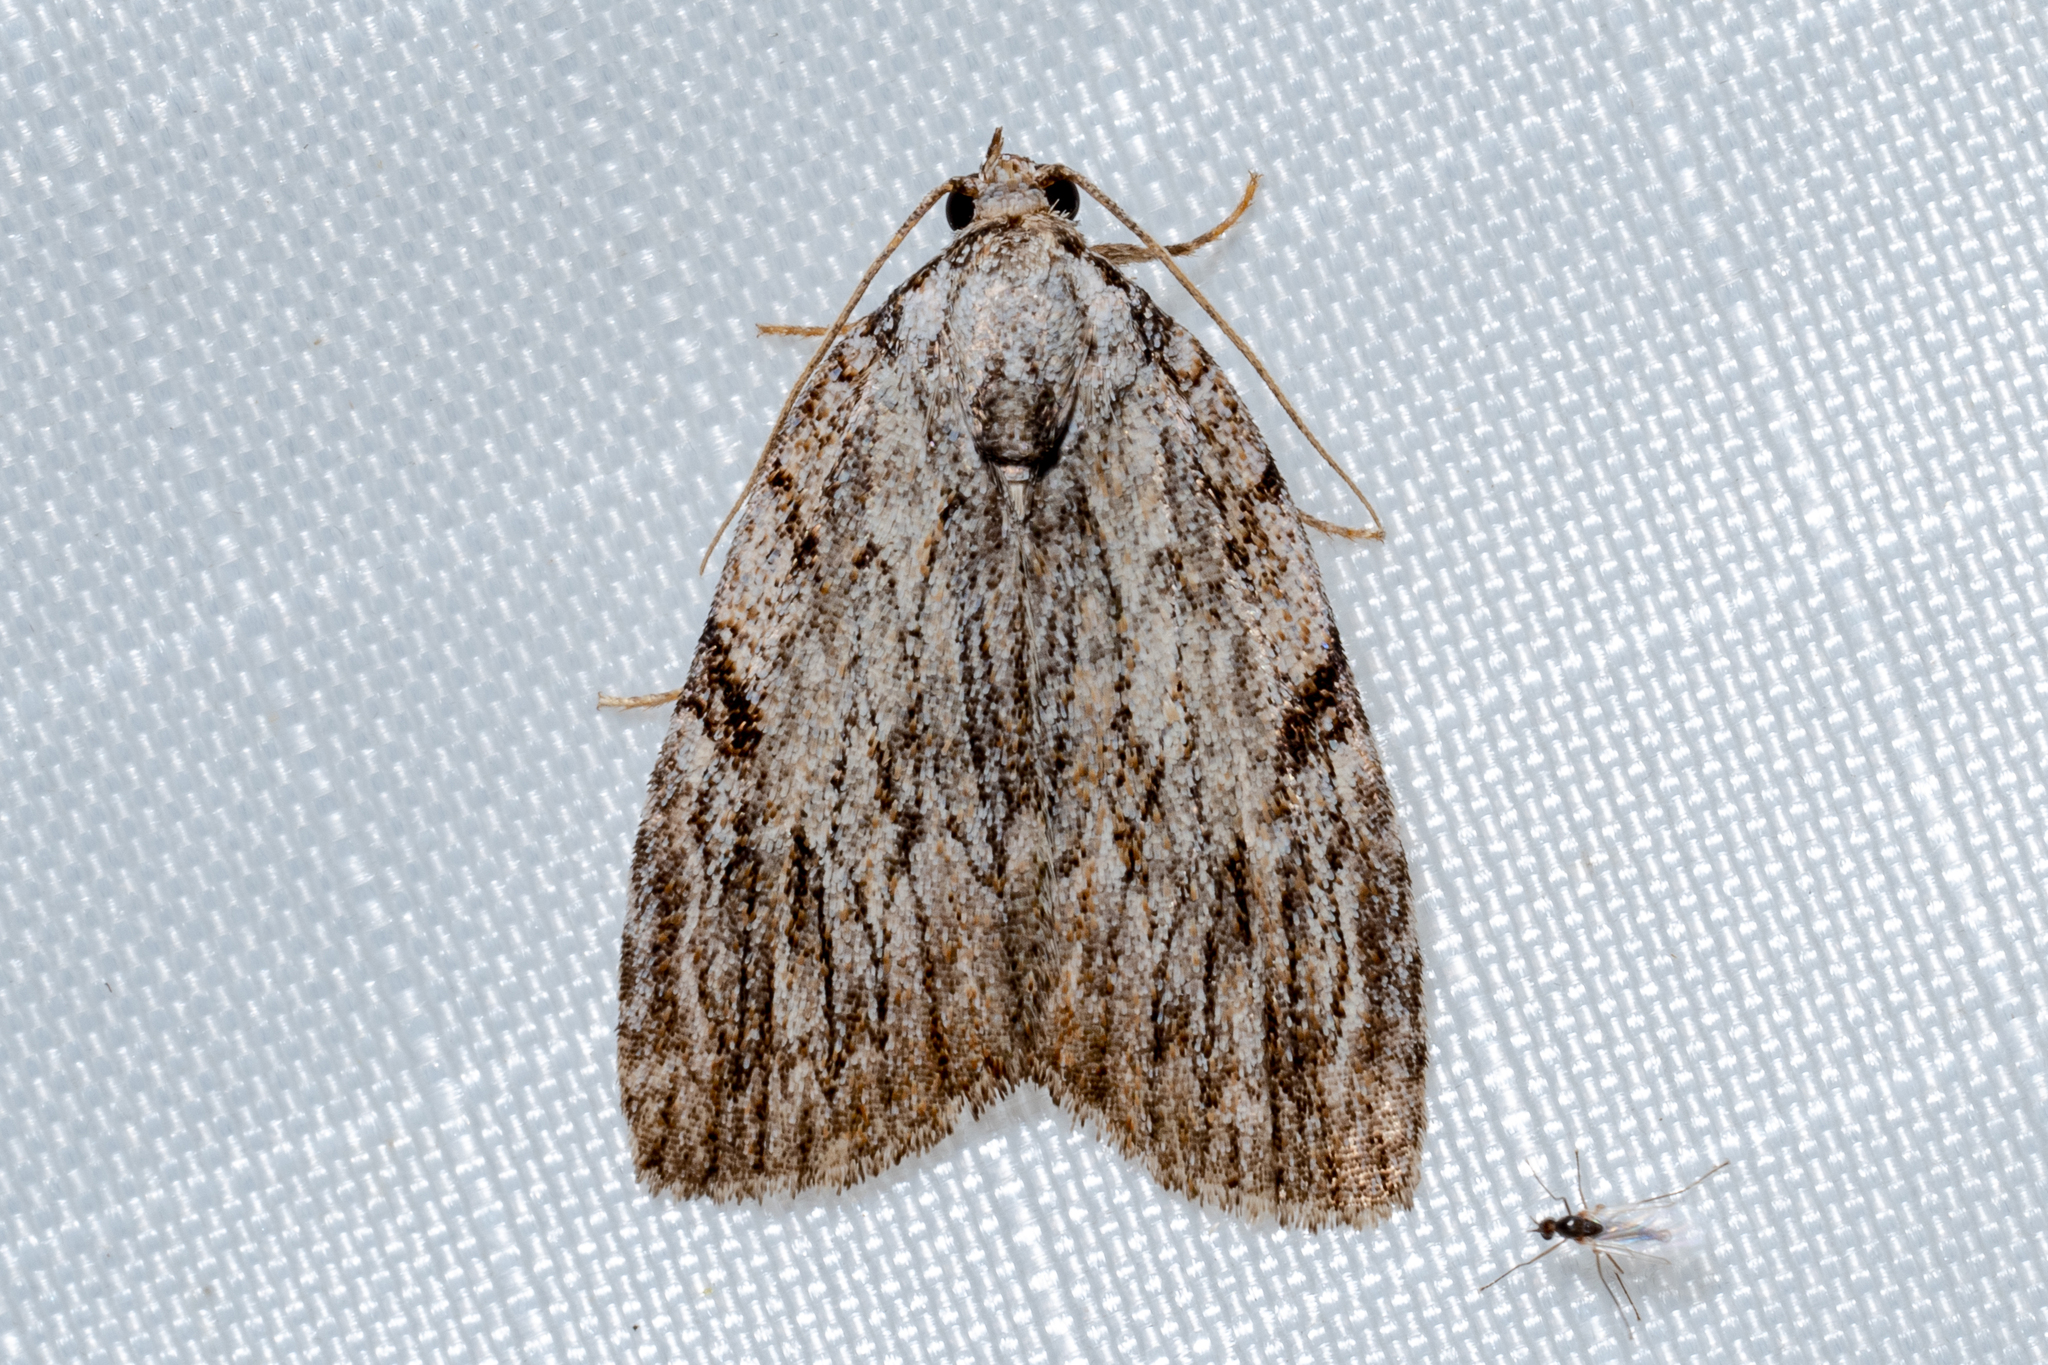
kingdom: Animalia
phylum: Arthropoda
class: Insecta
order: Lepidoptera
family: Noctuidae
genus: Balsa
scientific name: Balsa tristrigella
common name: Three-lined balsa moth
